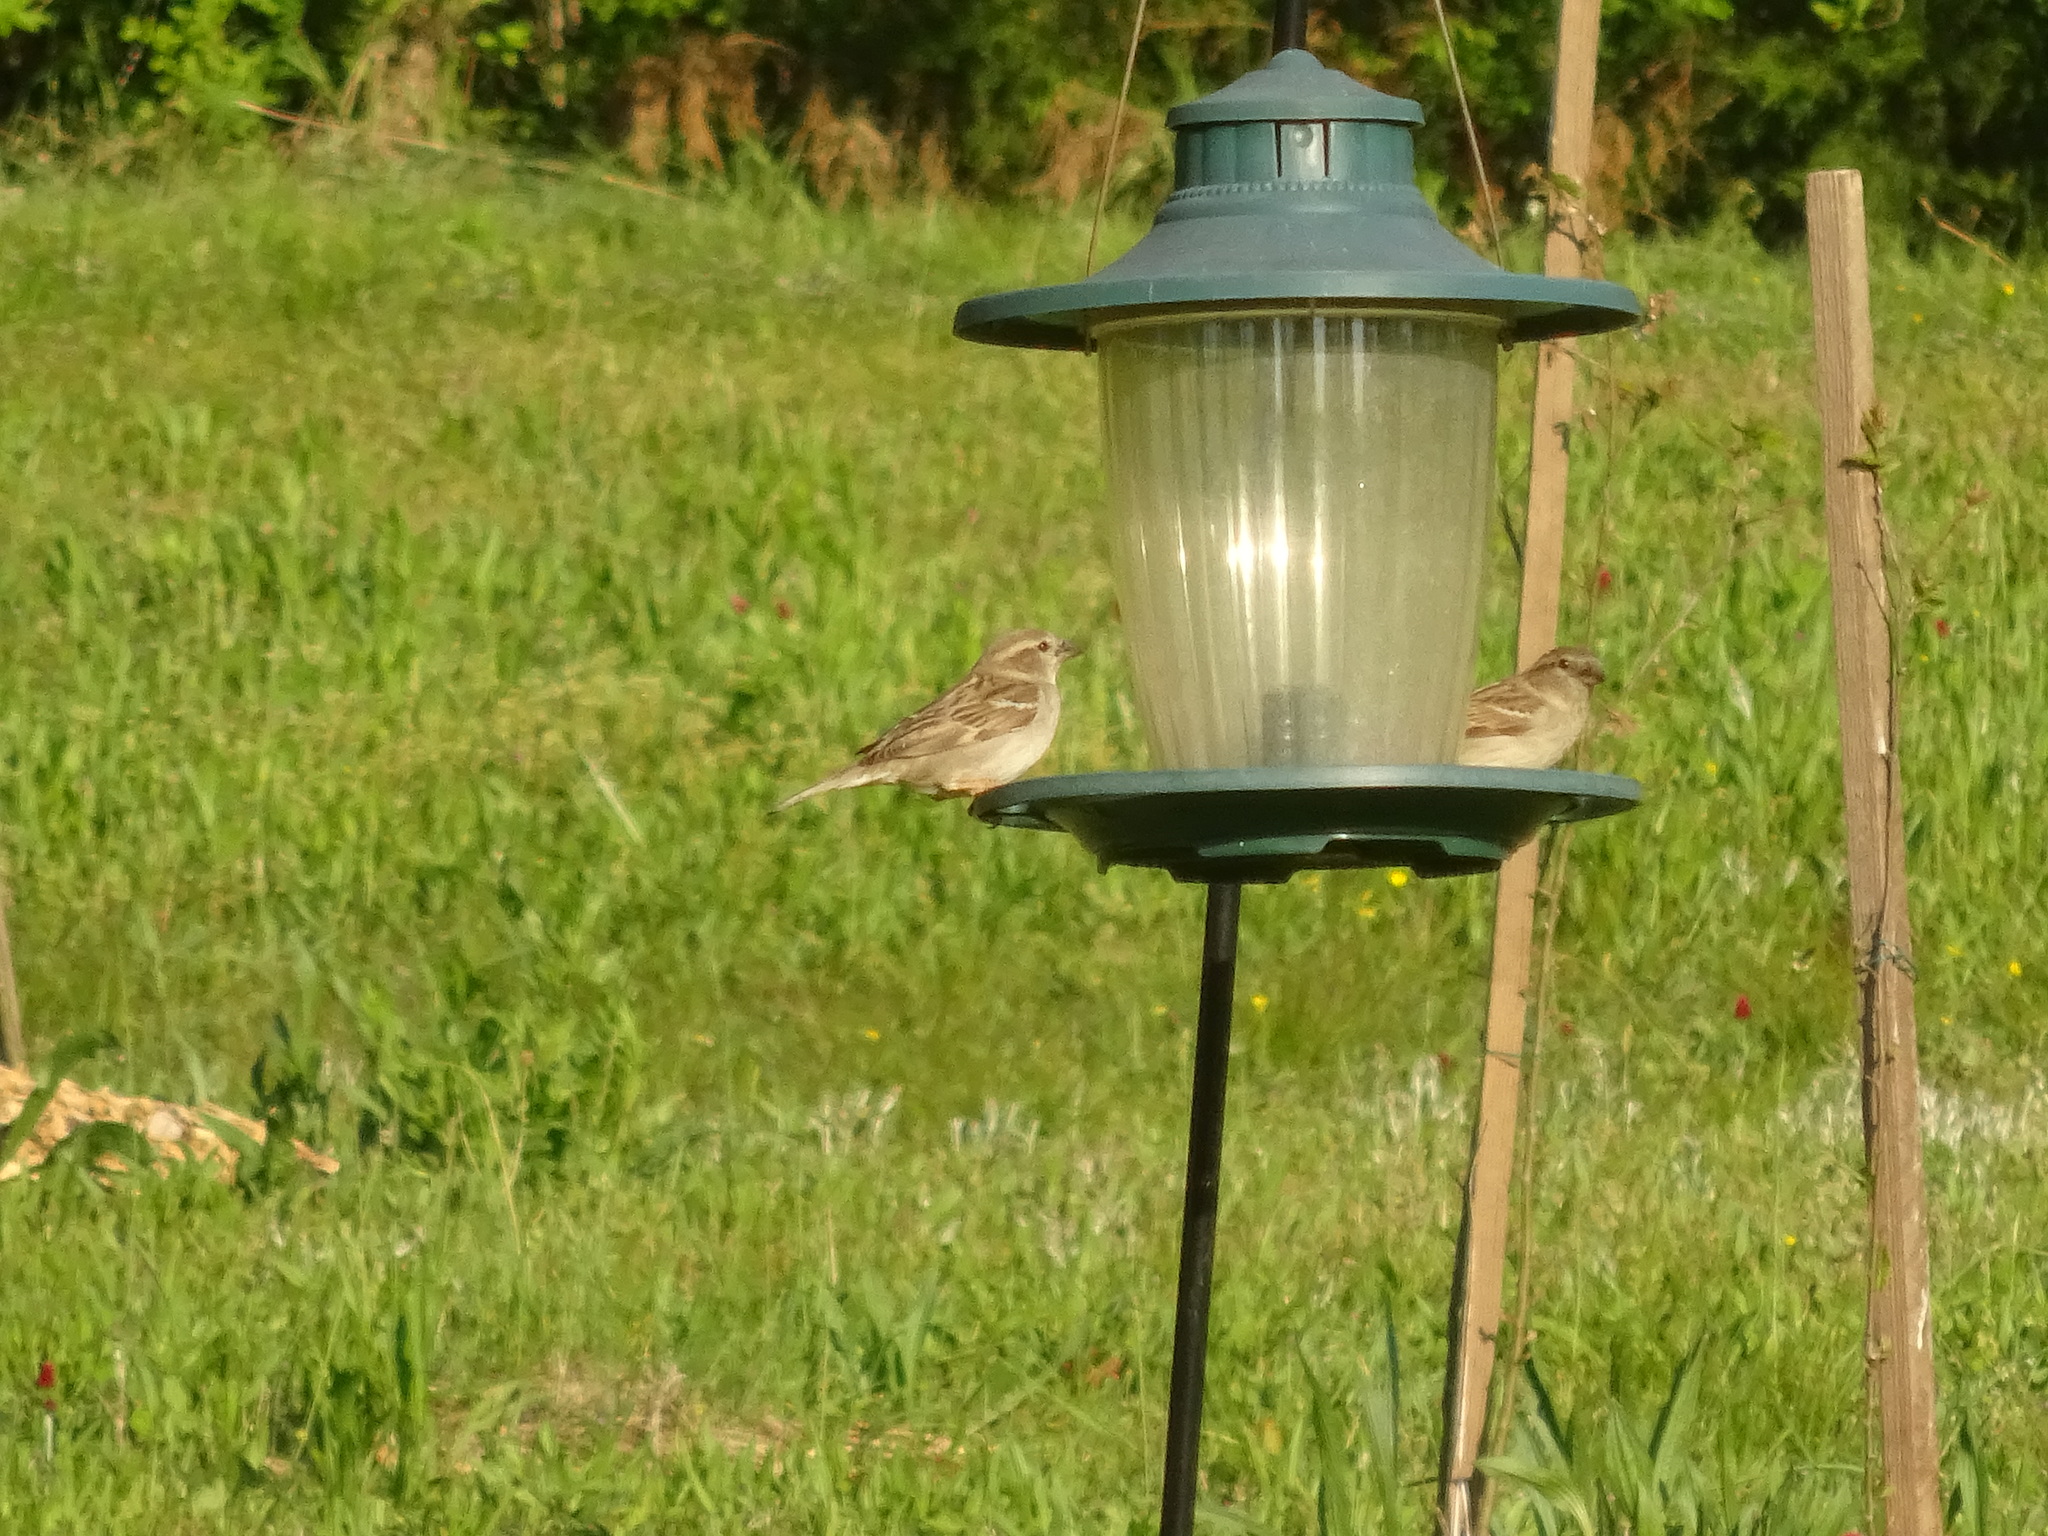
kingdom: Animalia
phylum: Chordata
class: Aves
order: Passeriformes
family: Passeridae
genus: Passer
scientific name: Passer domesticus
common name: House sparrow
